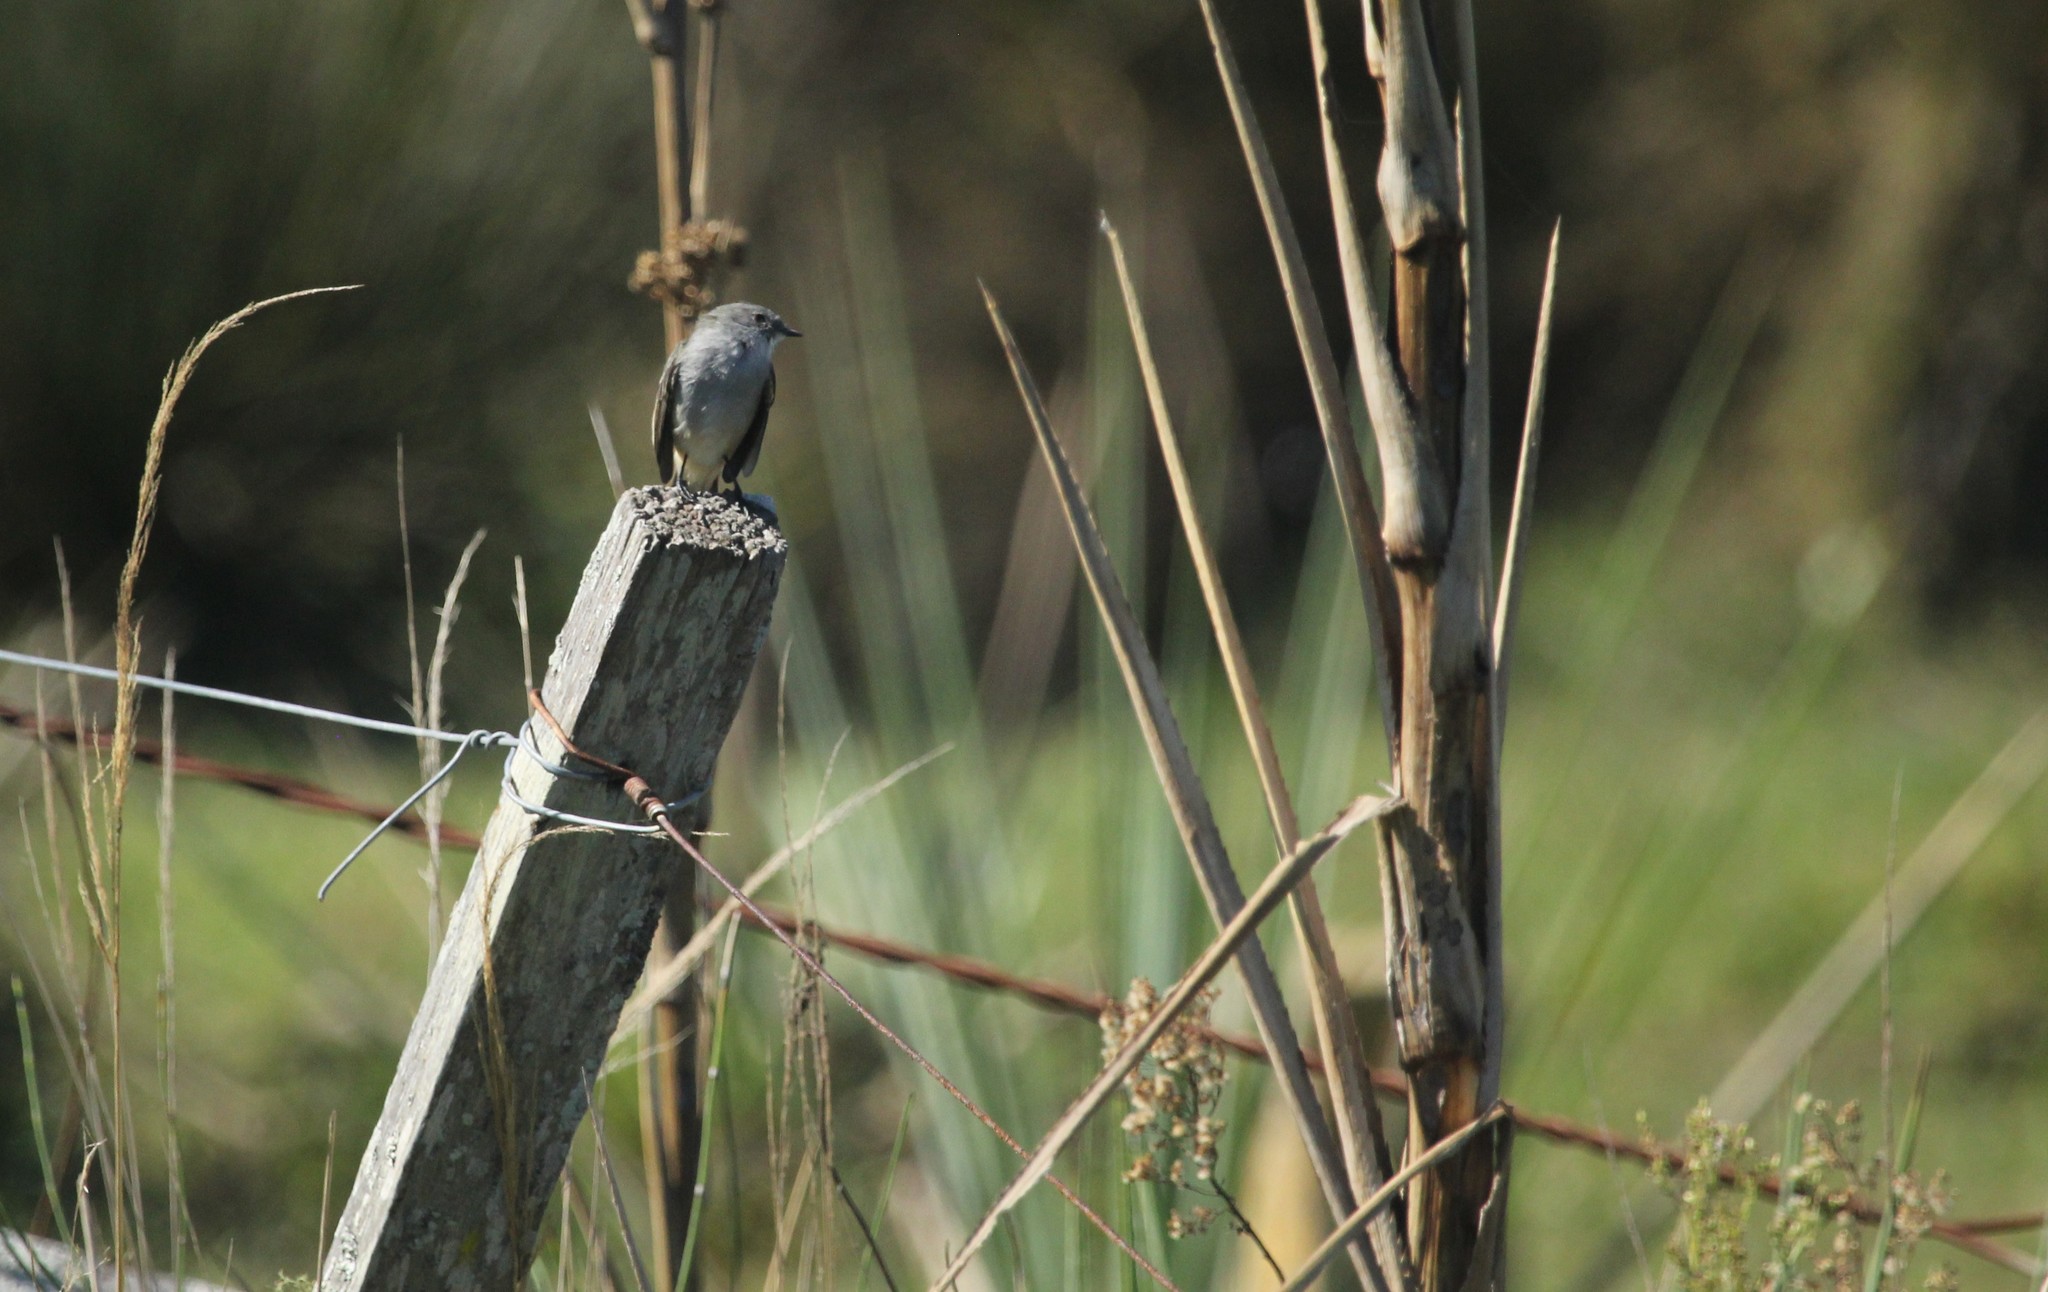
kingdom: Animalia
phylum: Chordata
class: Aves
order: Passeriformes
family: Tyrannidae
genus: Serpophaga
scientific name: Serpophaga nigricans
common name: Sooty tyrannulet
